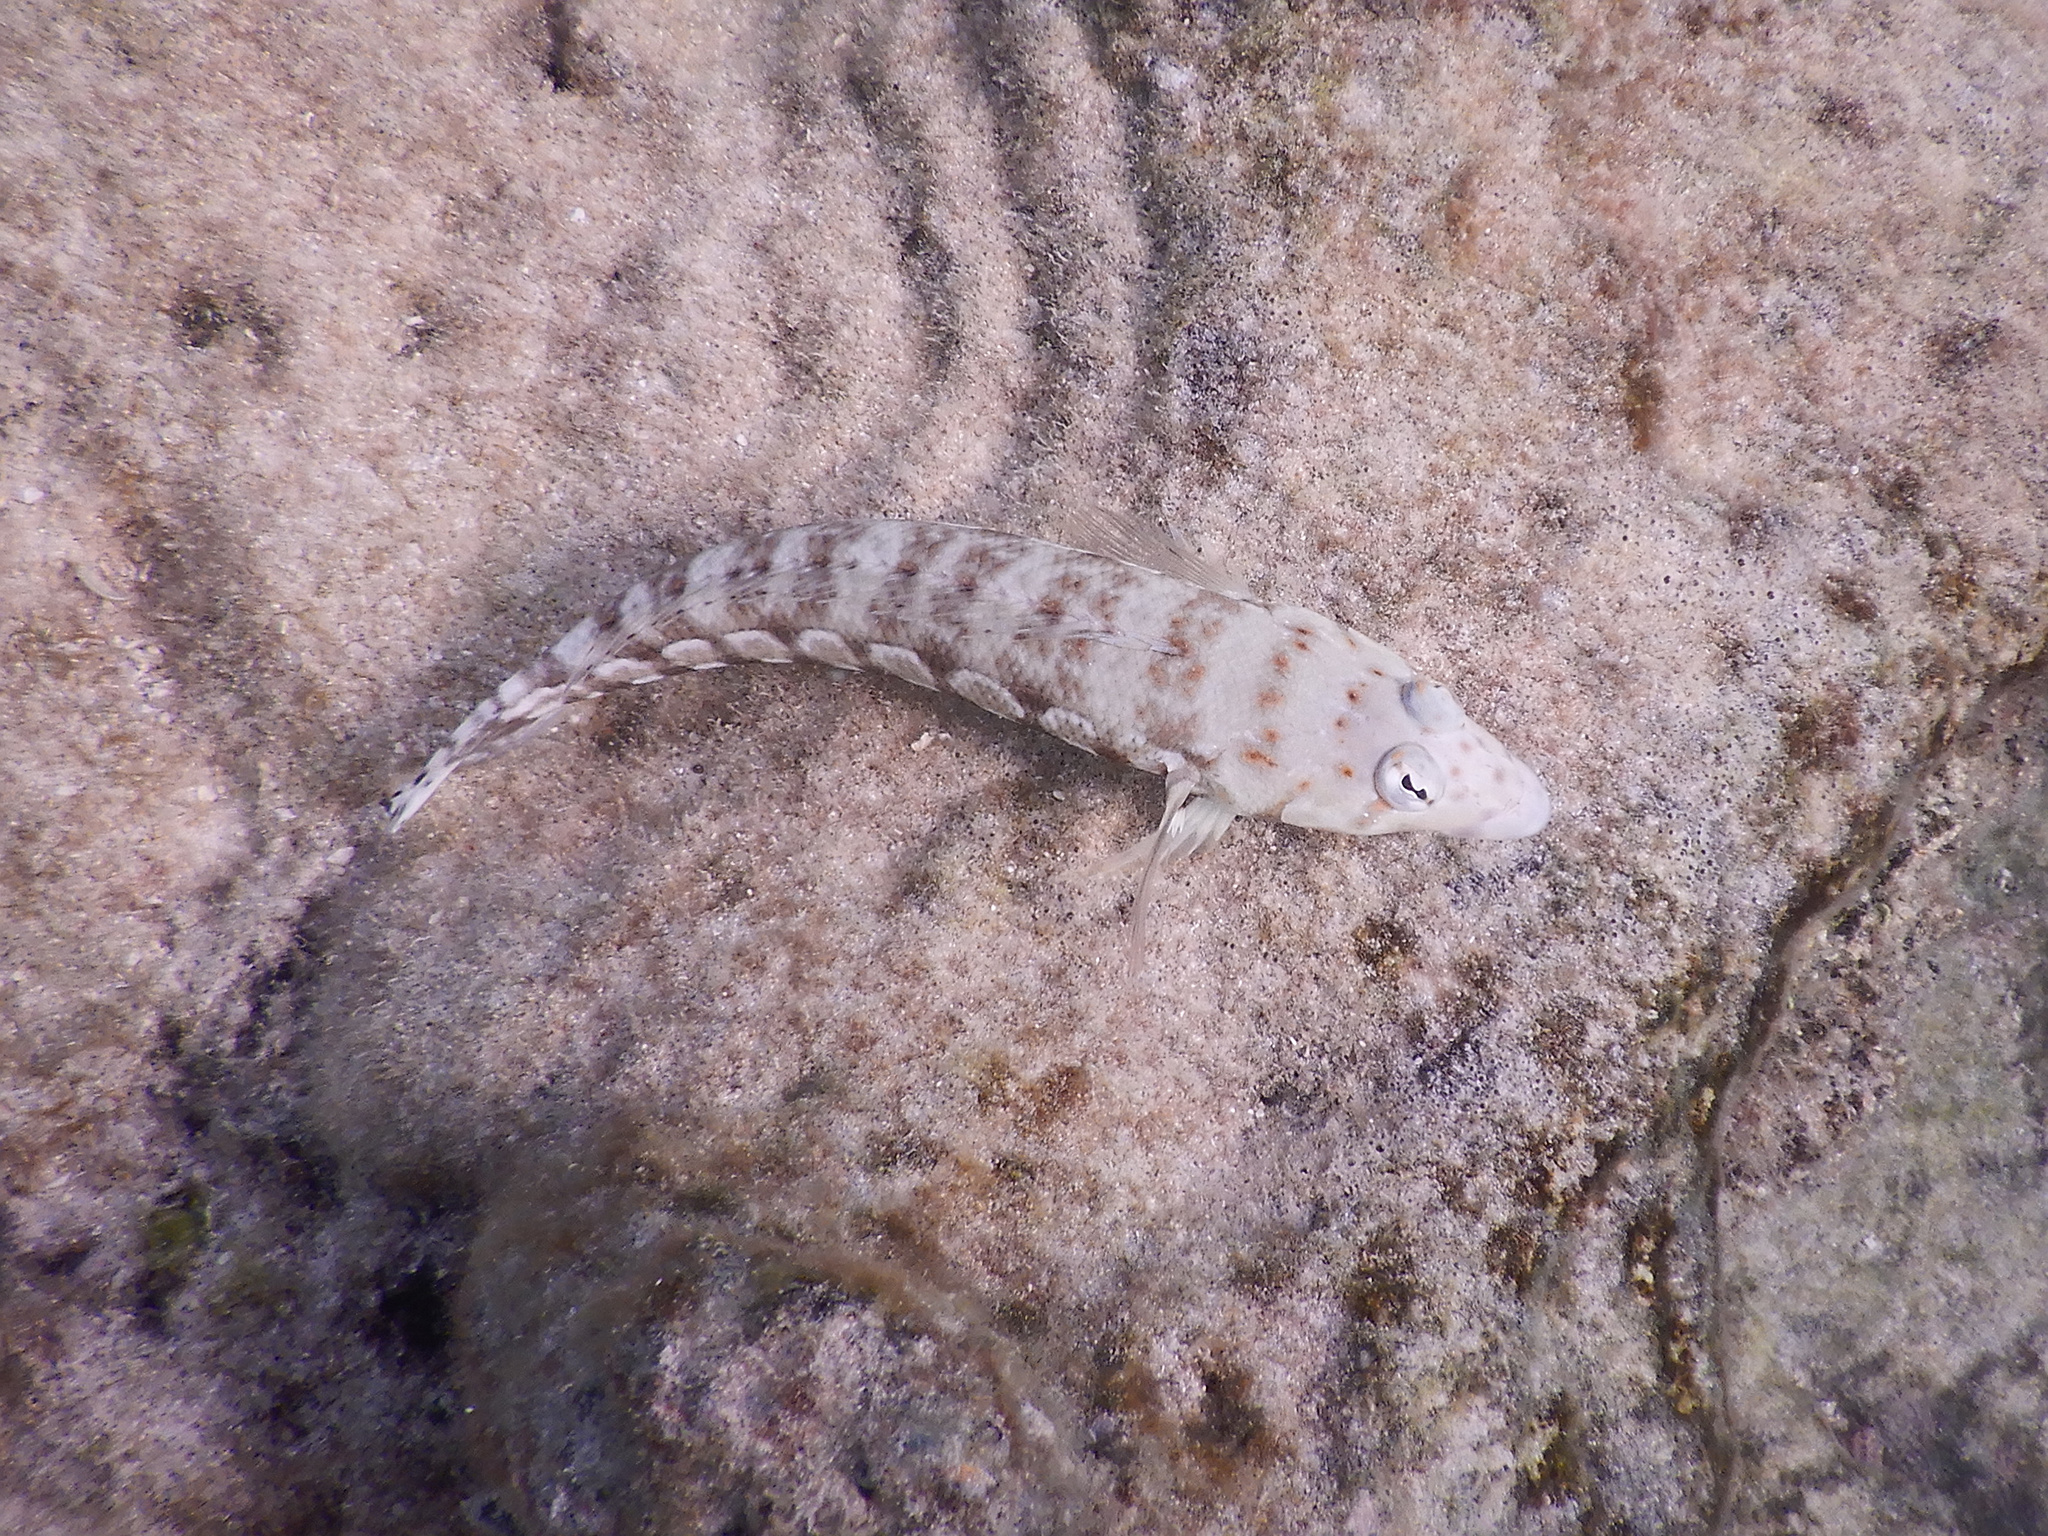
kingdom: Animalia
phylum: Chordata
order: Perciformes
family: Pinguipedidae
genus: Parapercis
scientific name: Parapercis millepunctata
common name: Black-dotted sandperch
